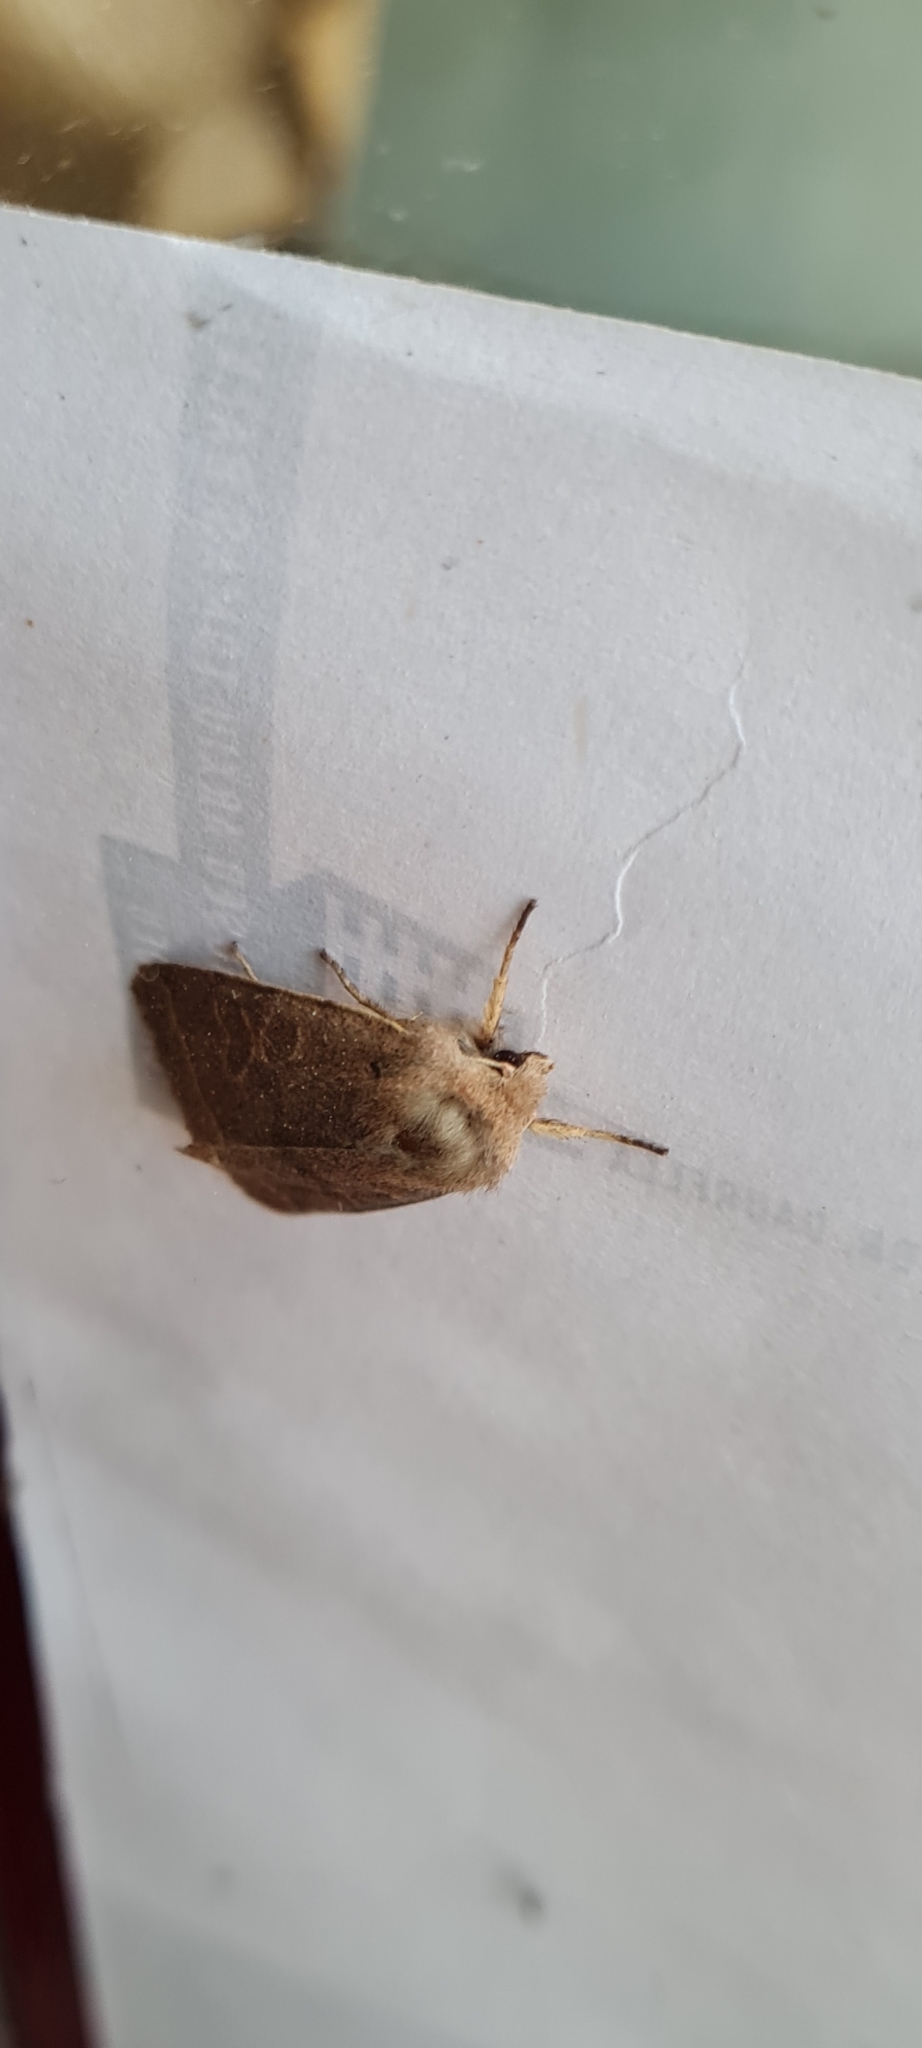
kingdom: Animalia
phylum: Arthropoda
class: Insecta
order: Lepidoptera
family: Noctuidae
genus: Orthosia
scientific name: Orthosia cerasi
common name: Common quaker
